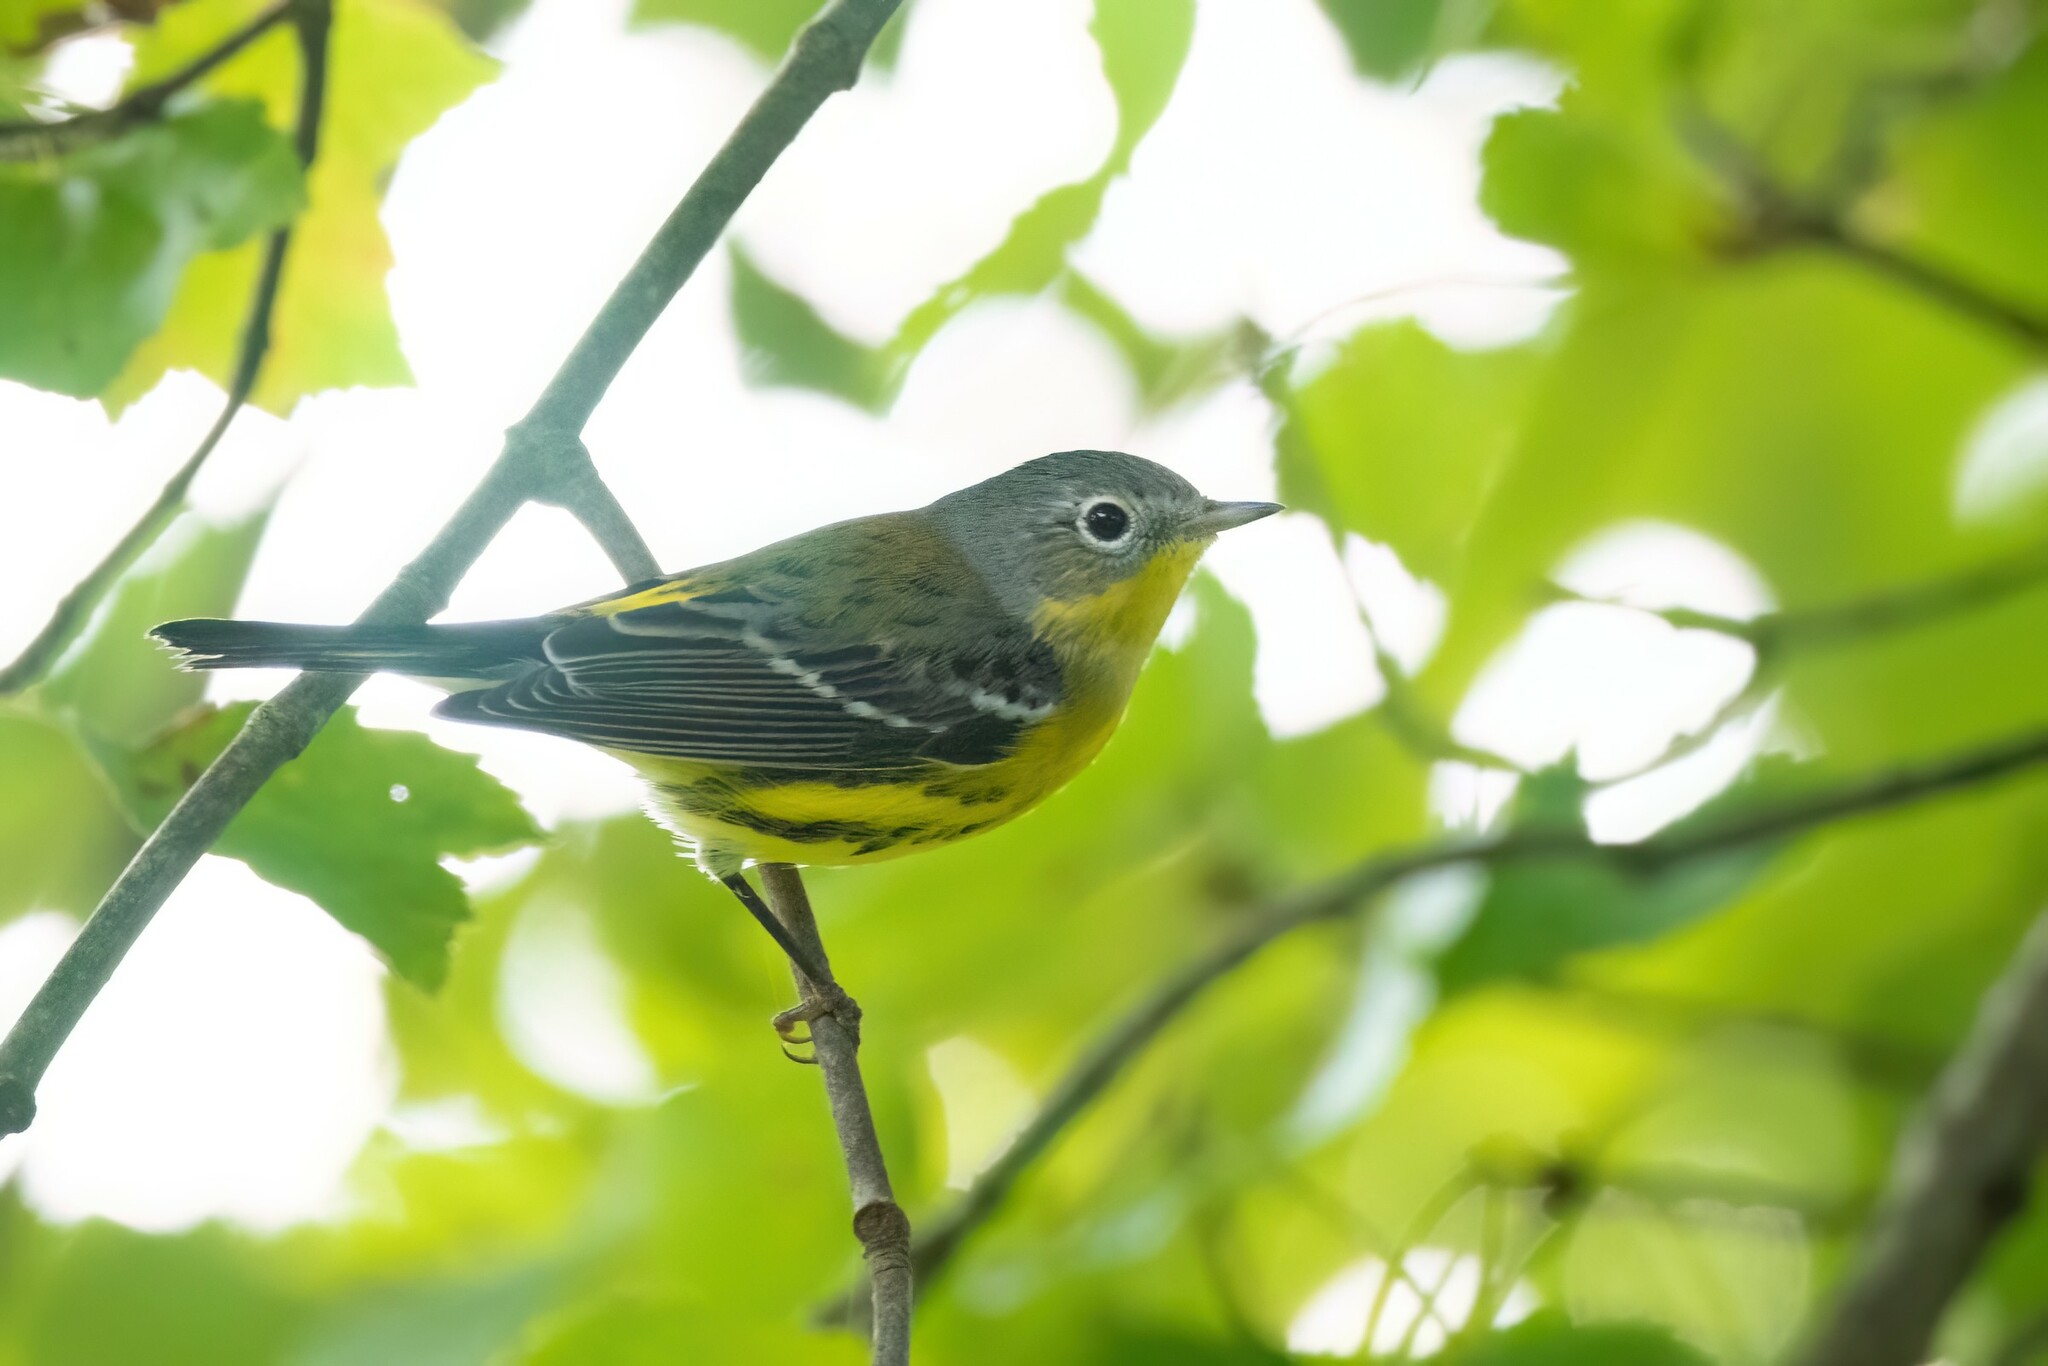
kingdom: Animalia
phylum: Chordata
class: Aves
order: Passeriformes
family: Parulidae
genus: Setophaga
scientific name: Setophaga magnolia
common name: Magnolia warbler
